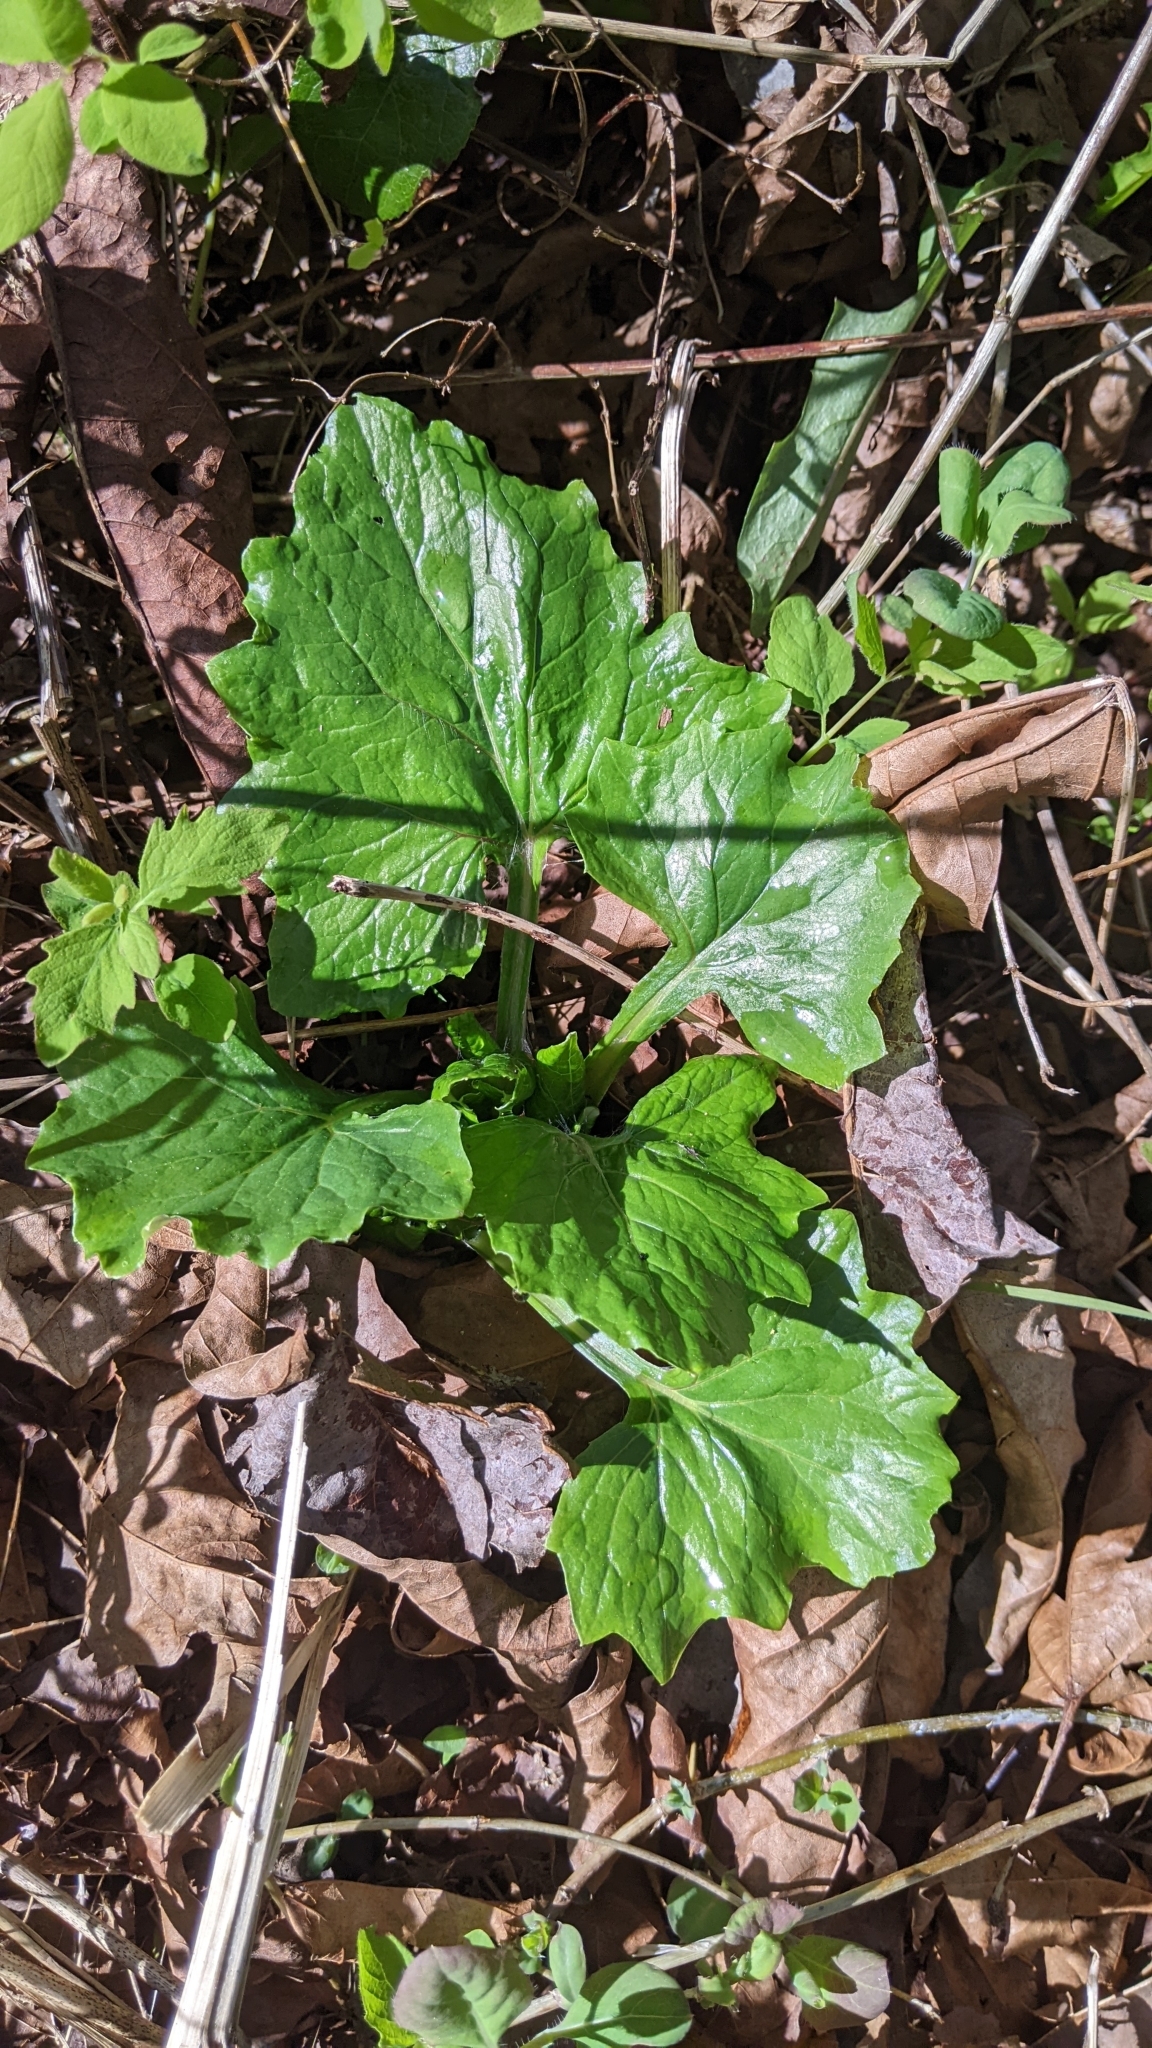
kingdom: Plantae
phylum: Tracheophyta
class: Magnoliopsida
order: Asterales
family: Asteraceae
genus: Adenocaulon
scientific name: Adenocaulon bicolor
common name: Trailplant
